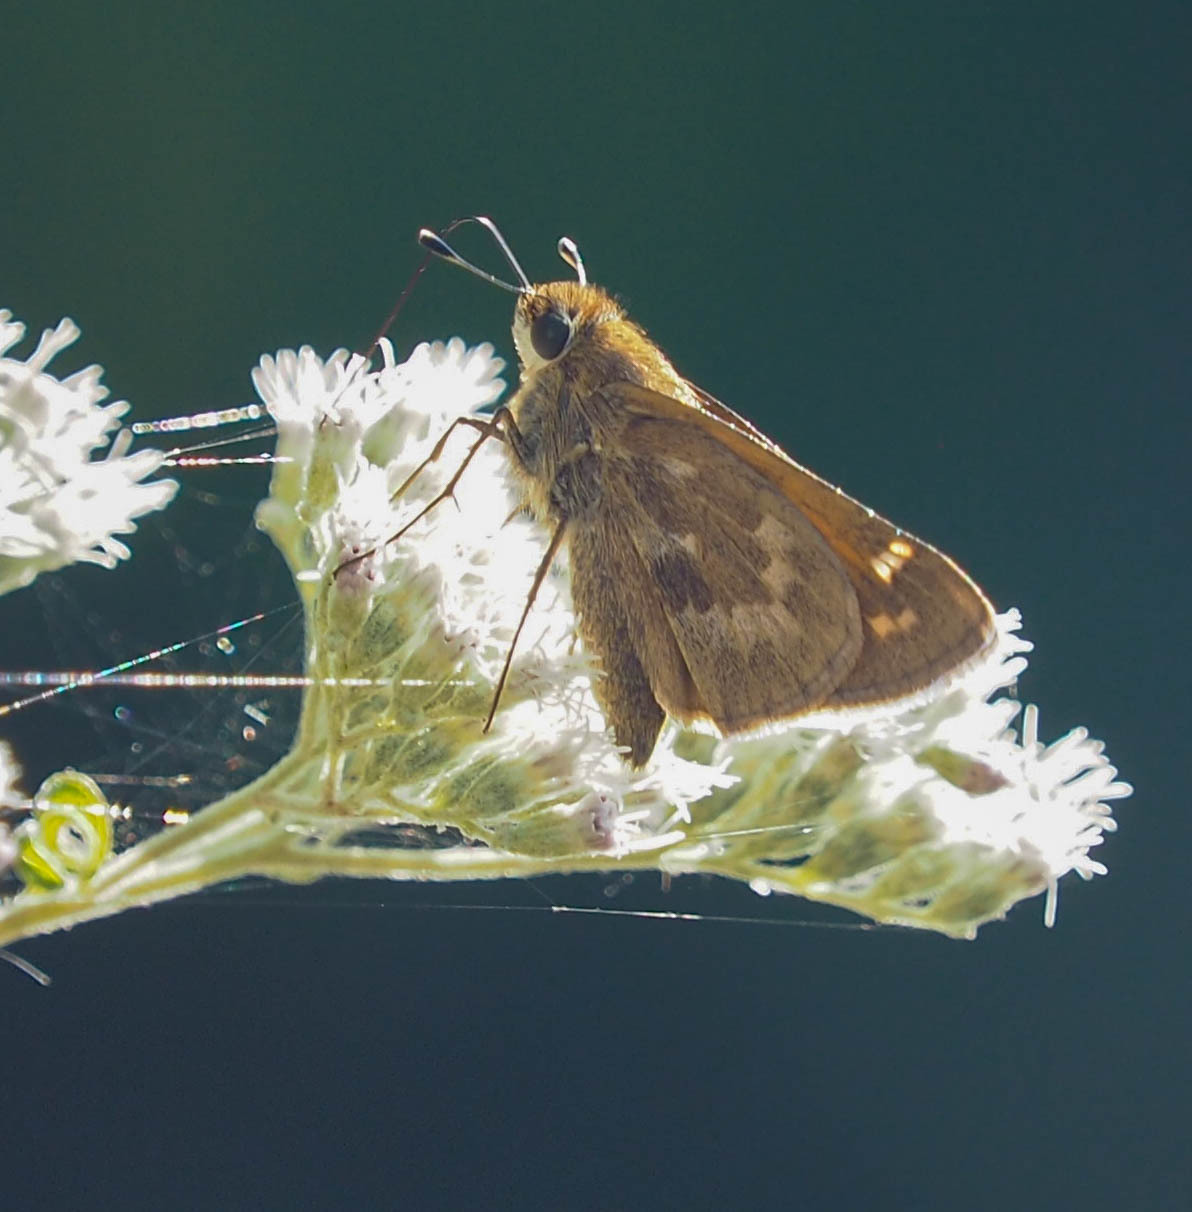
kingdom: Animalia
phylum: Arthropoda
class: Insecta
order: Lepidoptera
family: Hesperiidae
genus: Atalopedes
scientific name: Atalopedes
